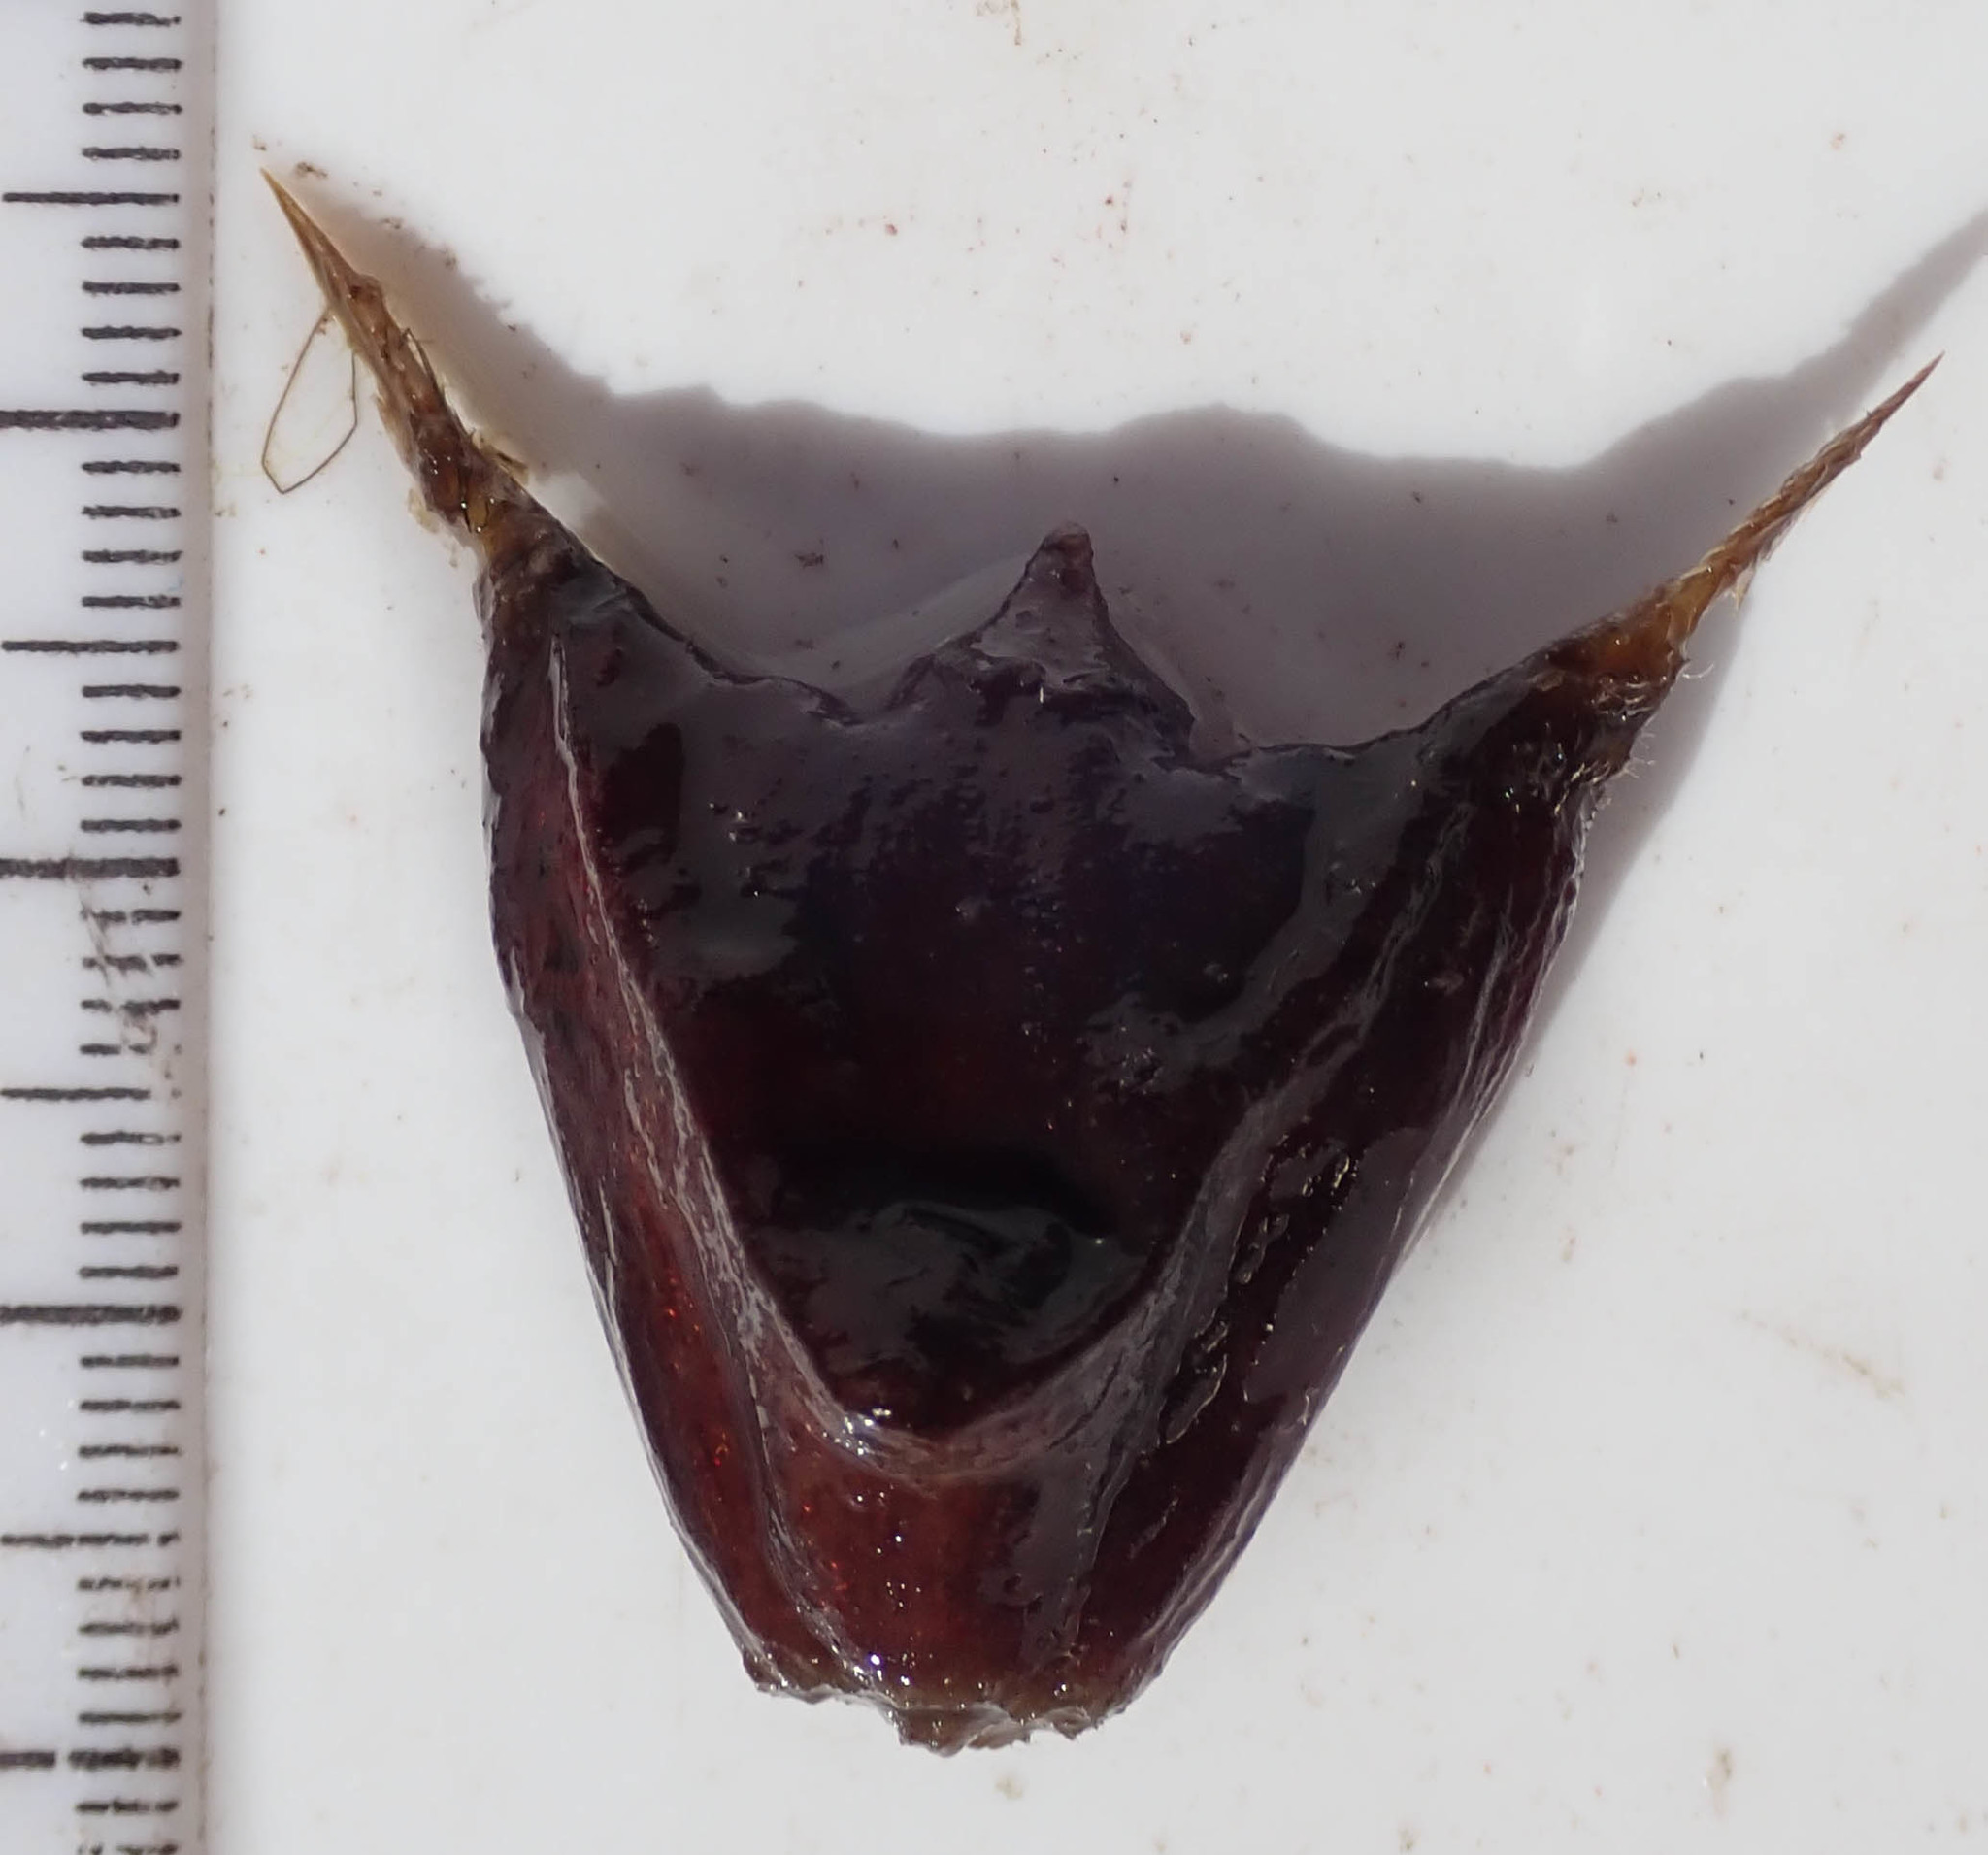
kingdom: Plantae
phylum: Tracheophyta
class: Magnoliopsida
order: Myrtales
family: Lythraceae
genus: Trapa
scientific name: Trapa natans
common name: Water chestnut
